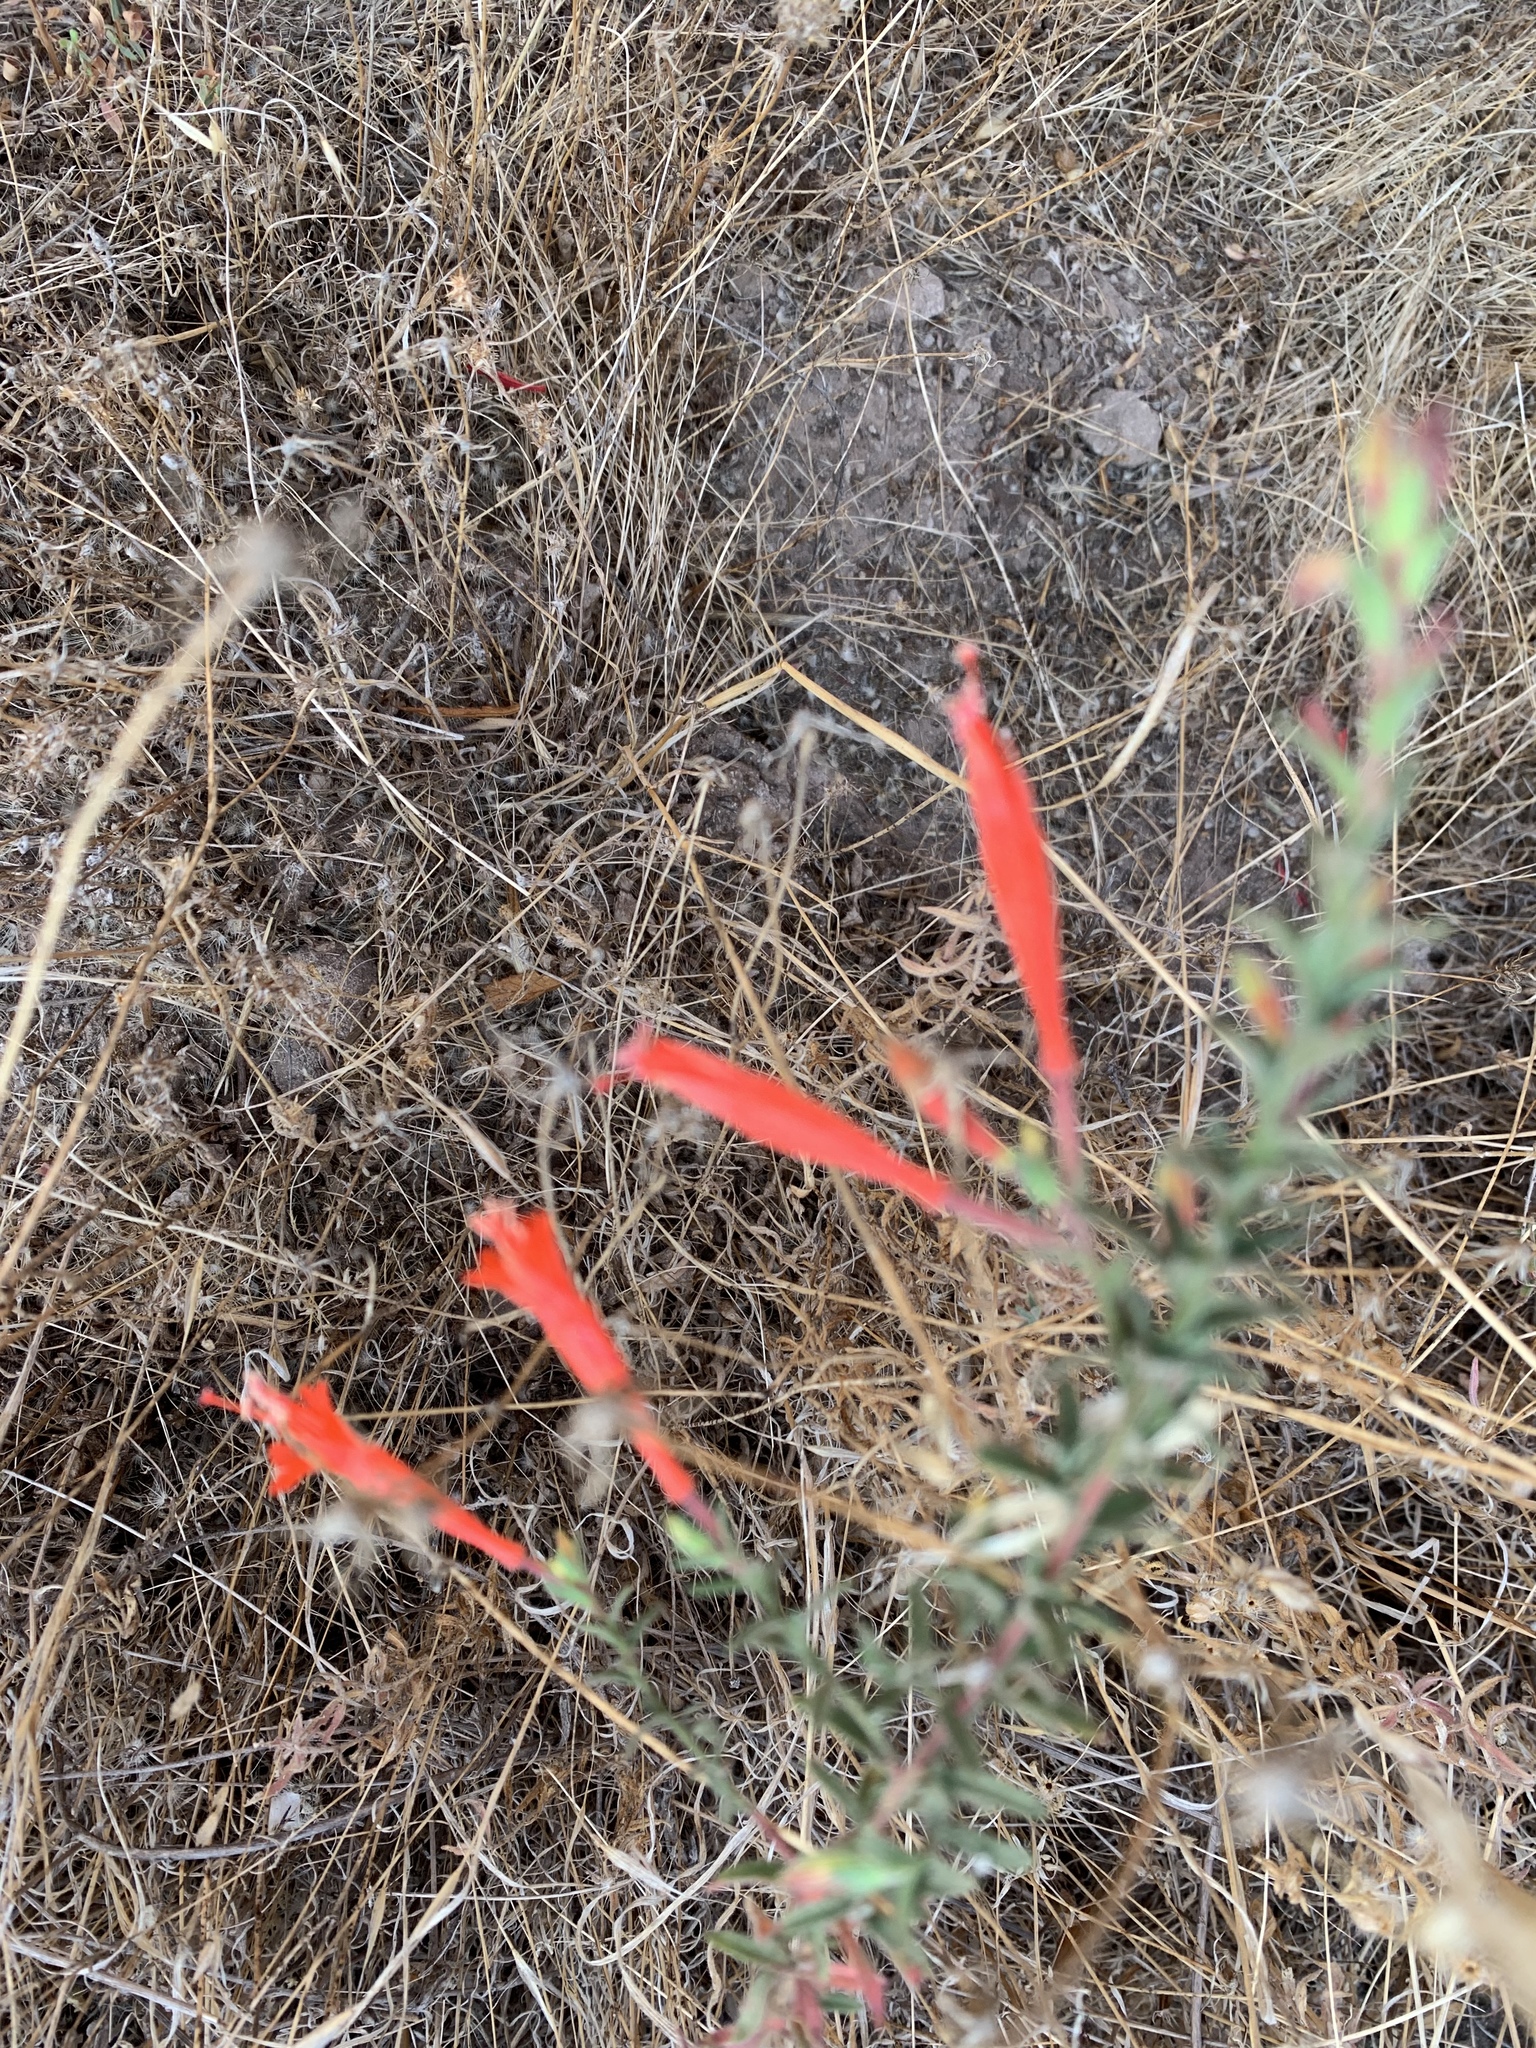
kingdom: Plantae
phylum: Tracheophyta
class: Magnoliopsida
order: Myrtales
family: Onagraceae
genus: Epilobium
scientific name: Epilobium canum
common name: California-fuchsia
